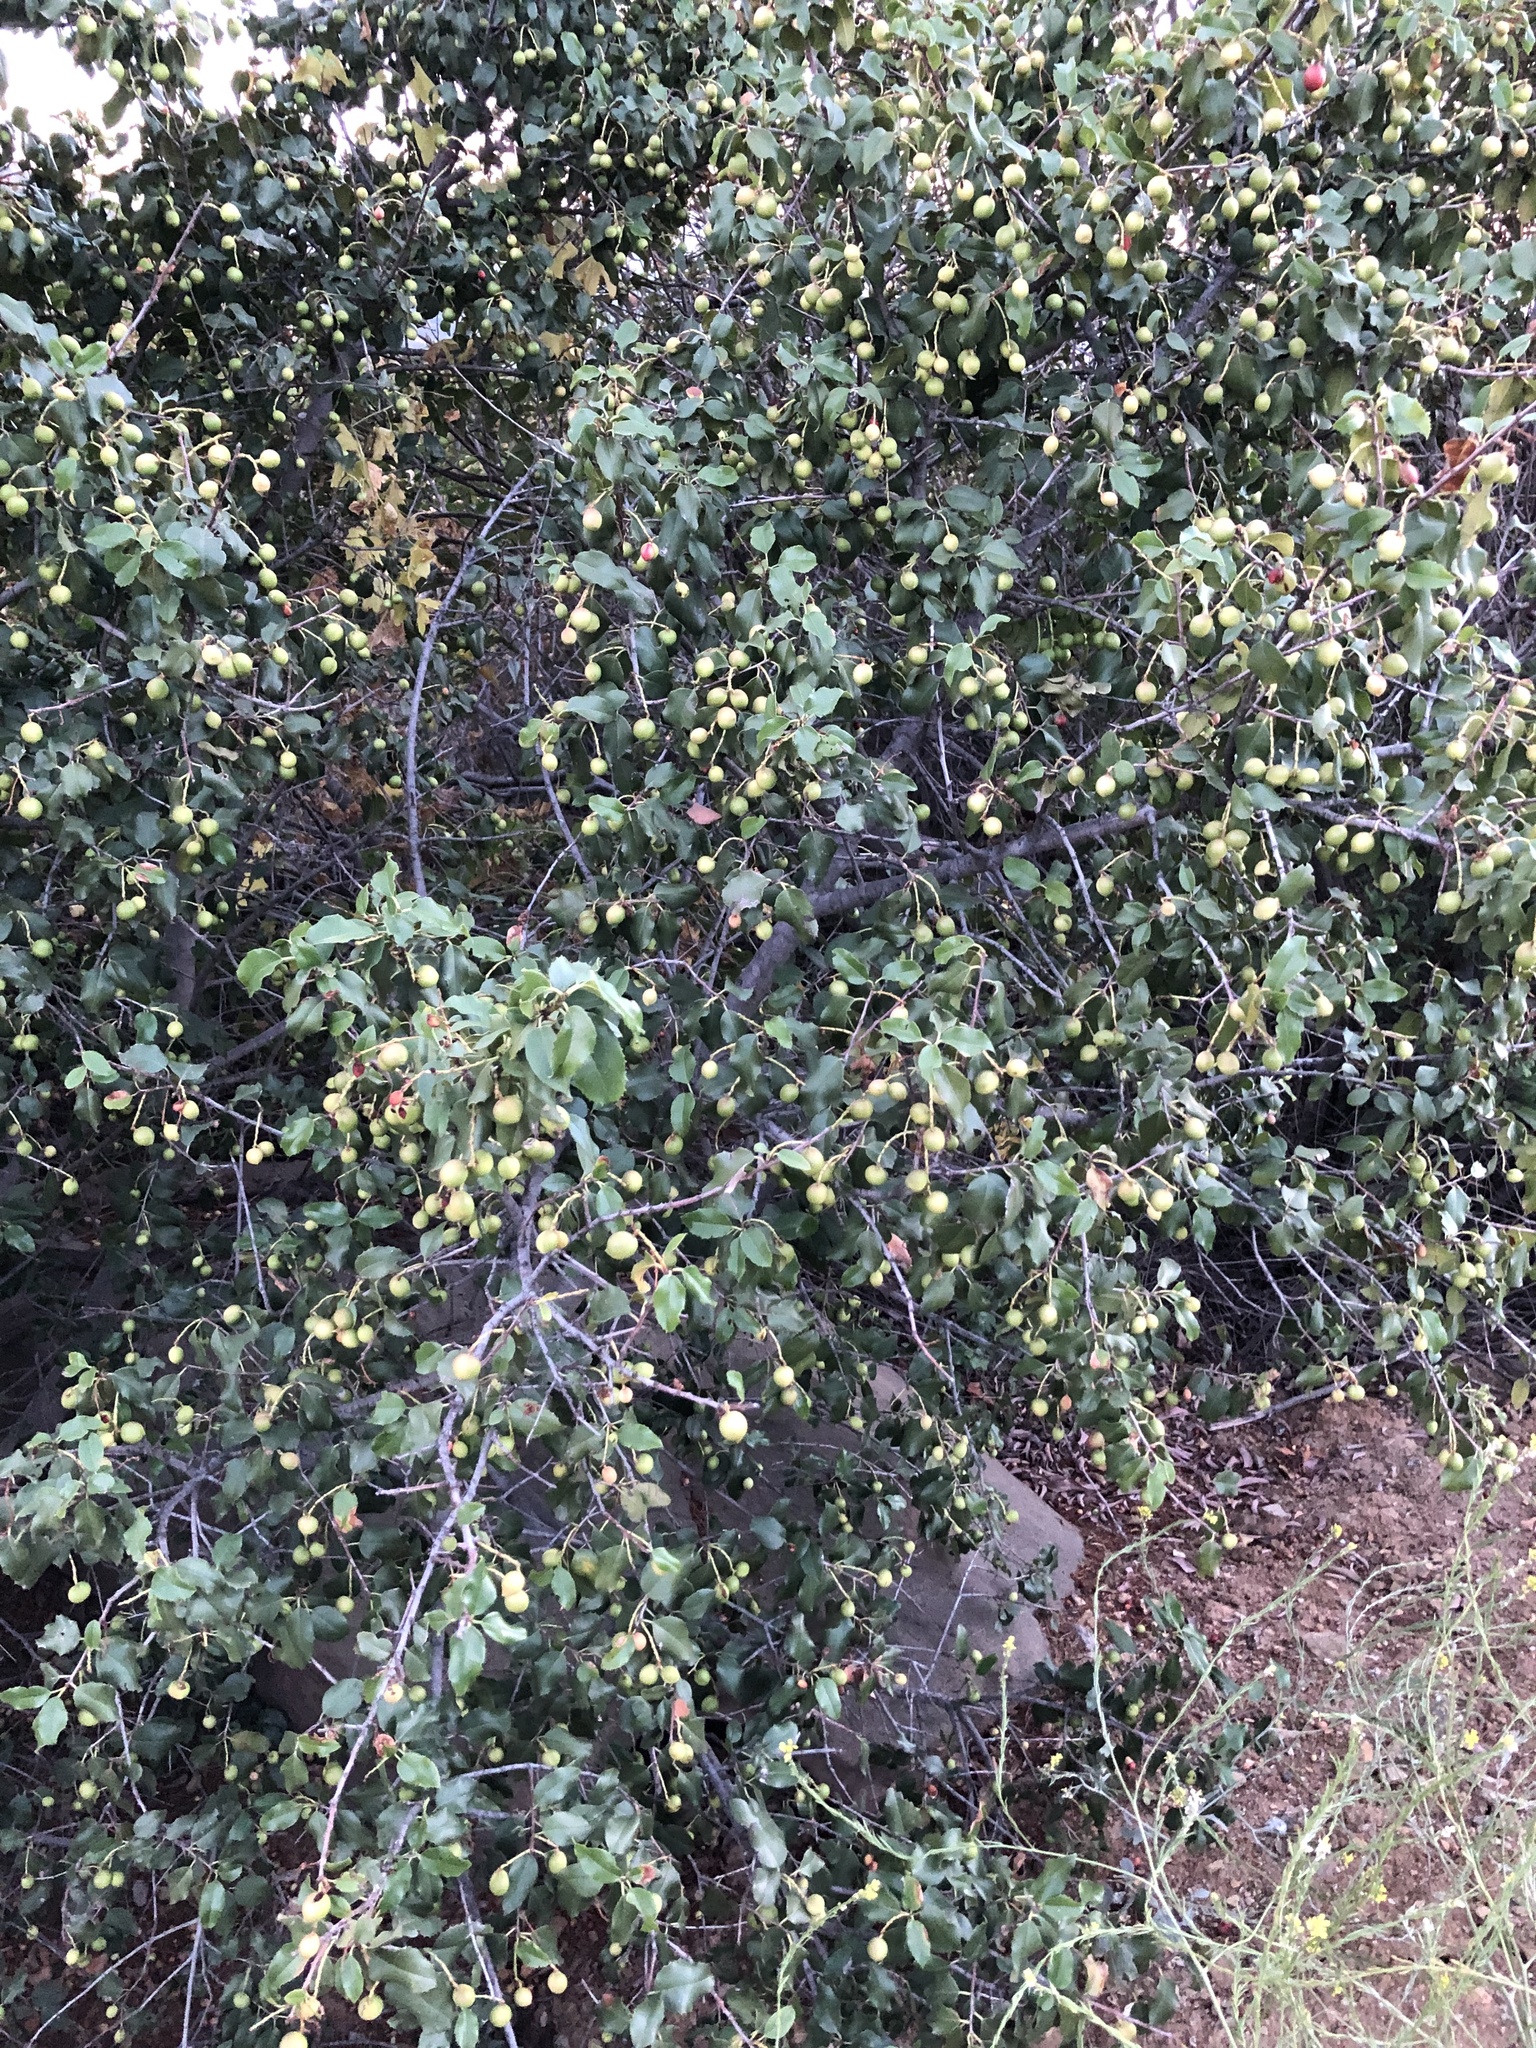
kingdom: Plantae
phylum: Tracheophyta
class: Magnoliopsida
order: Rosales
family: Rosaceae
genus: Prunus
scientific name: Prunus ilicifolia
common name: Hollyleaf cherry
